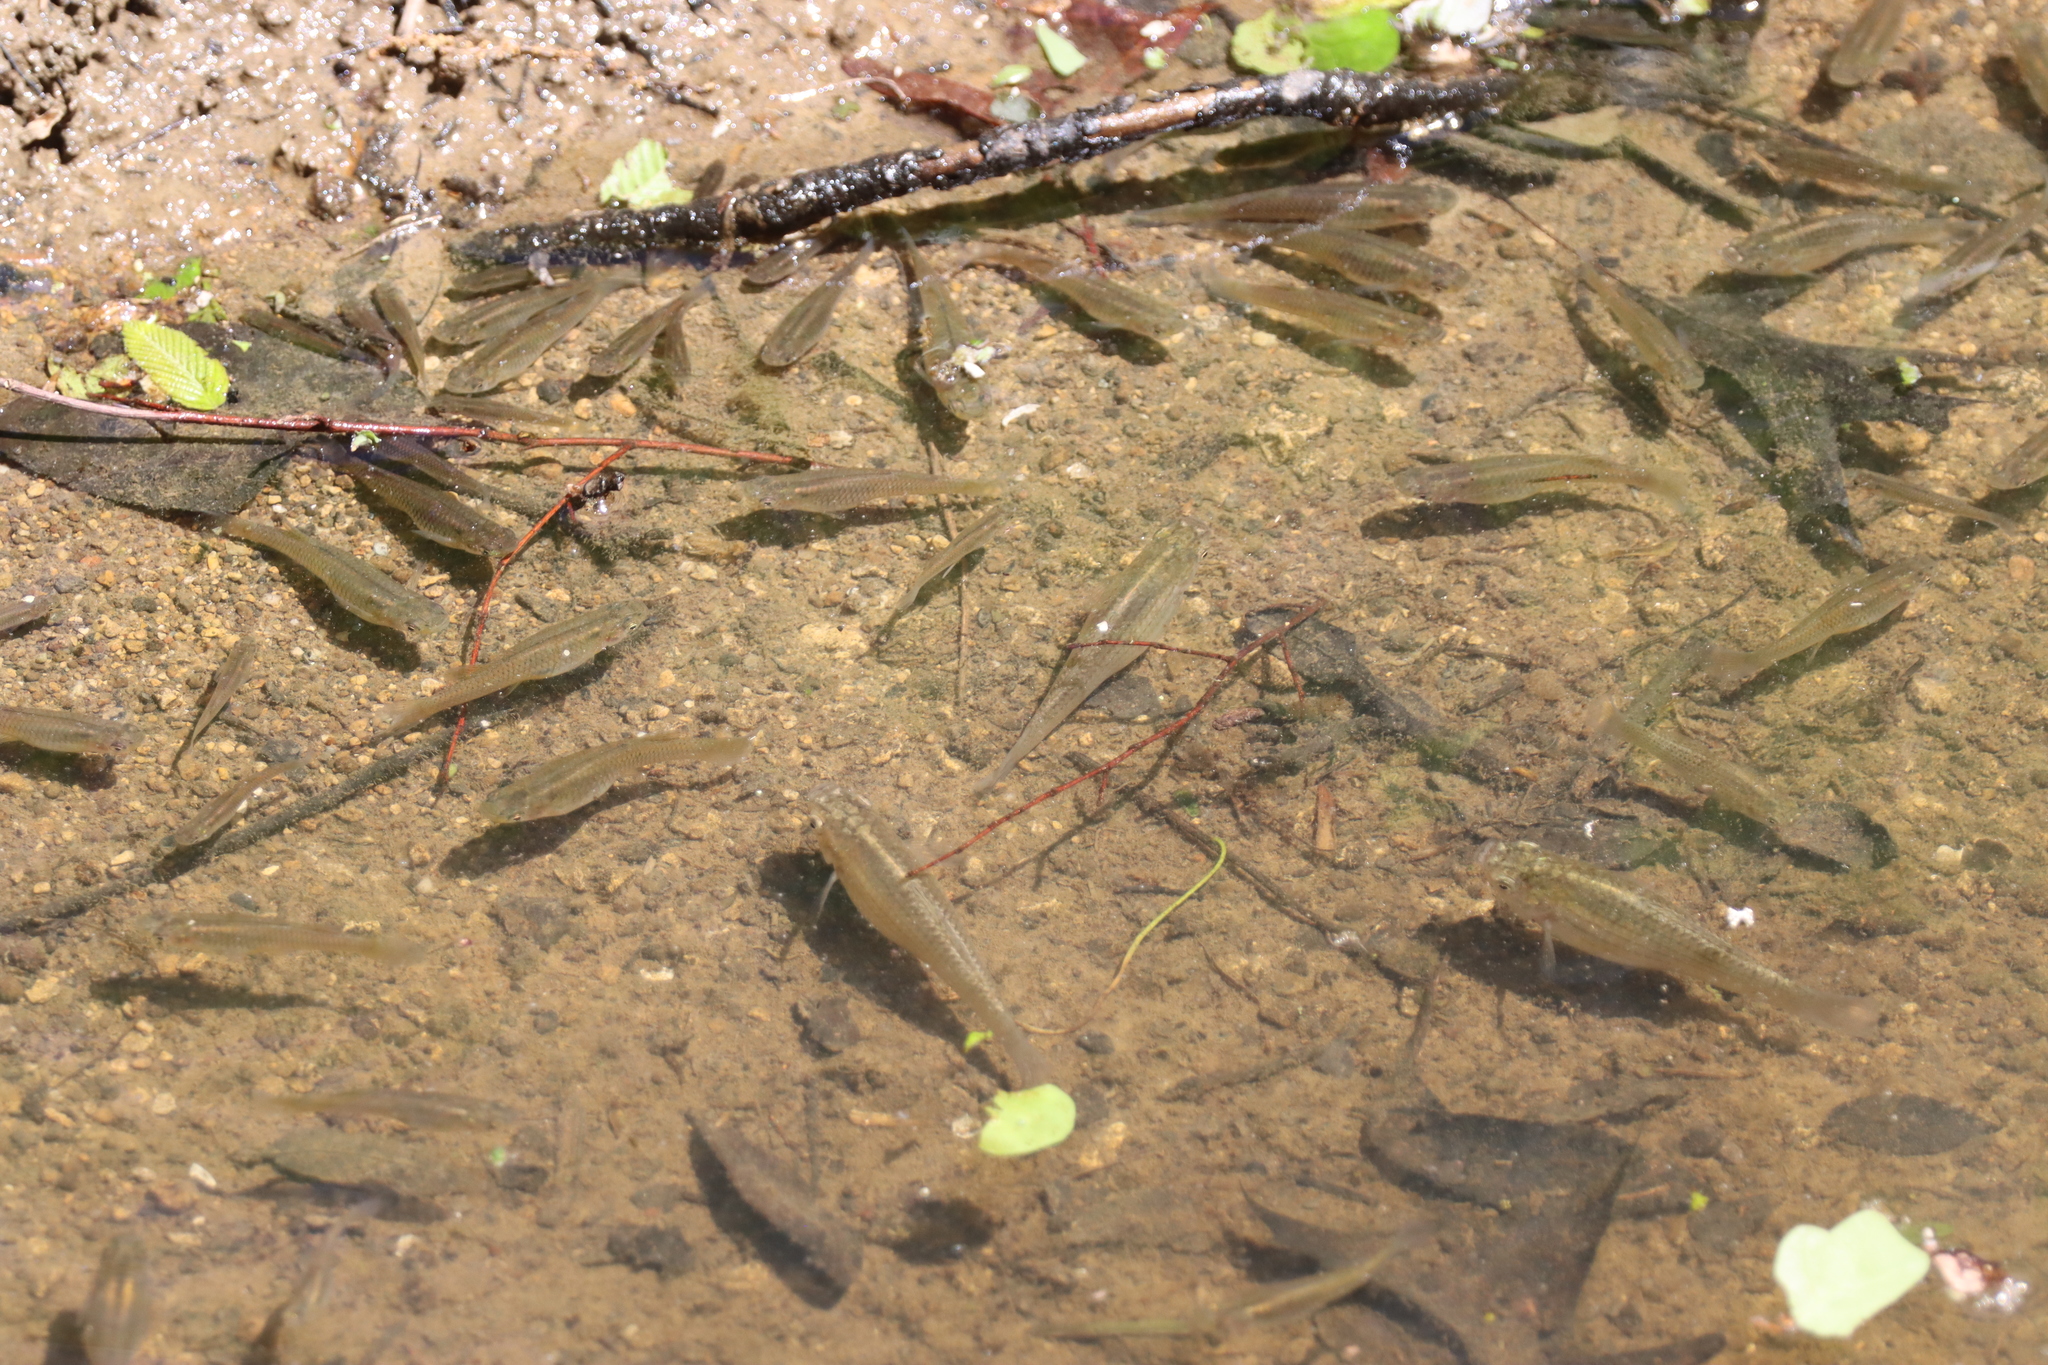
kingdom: Animalia
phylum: Chordata
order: Cyprinodontiformes
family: Poeciliidae
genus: Gambusia
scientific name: Gambusia affinis
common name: Mosquitofish
